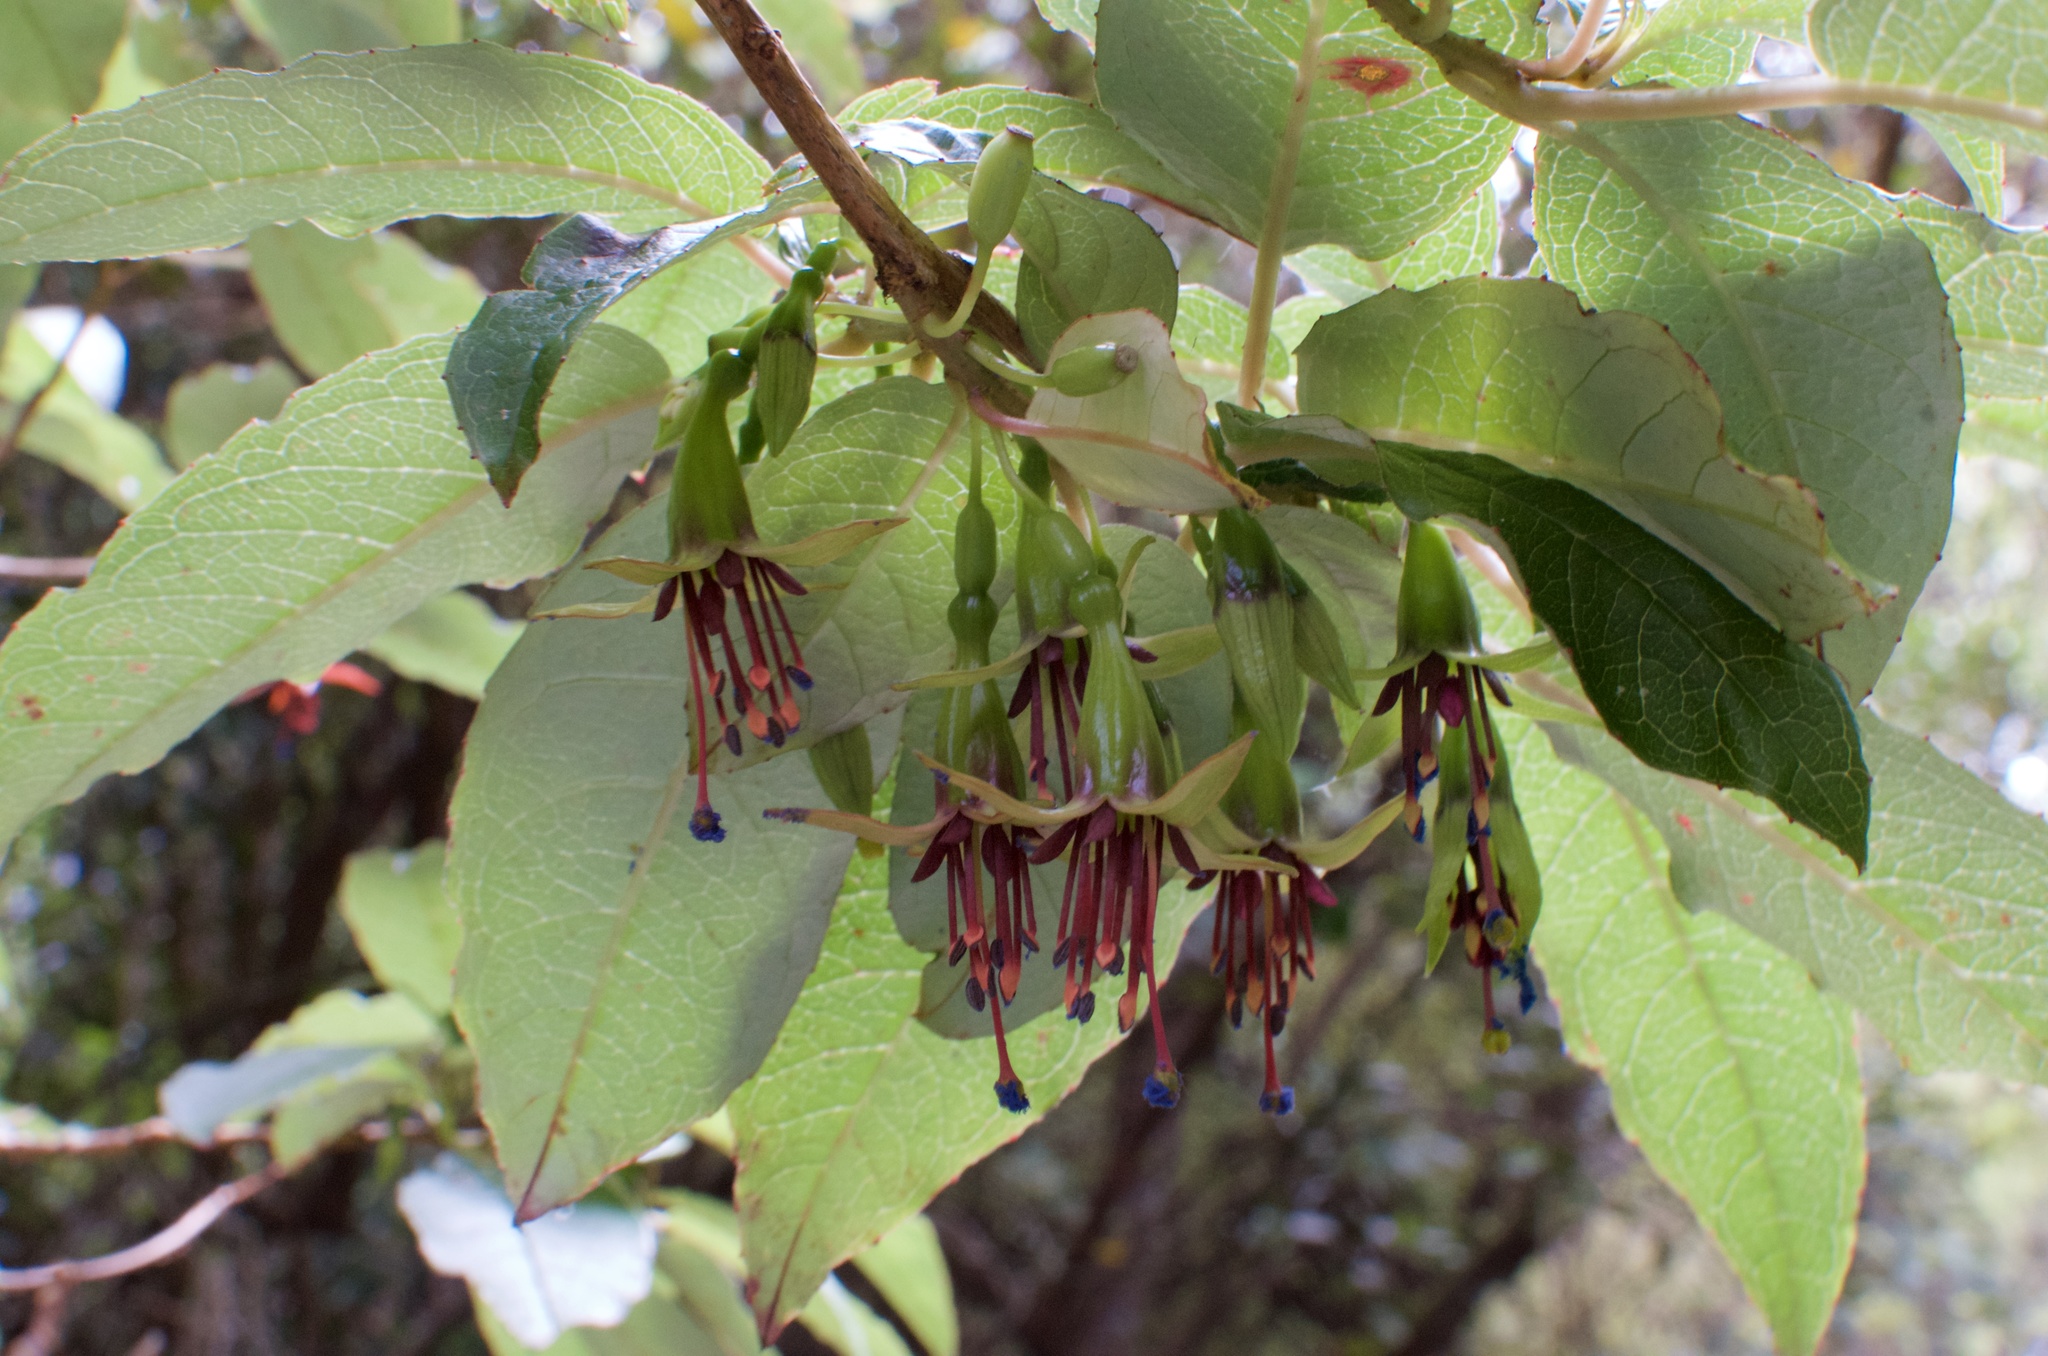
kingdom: Plantae
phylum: Tracheophyta
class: Magnoliopsida
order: Myrtales
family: Onagraceae
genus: Fuchsia
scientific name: Fuchsia excorticata
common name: Tree fuchsia
